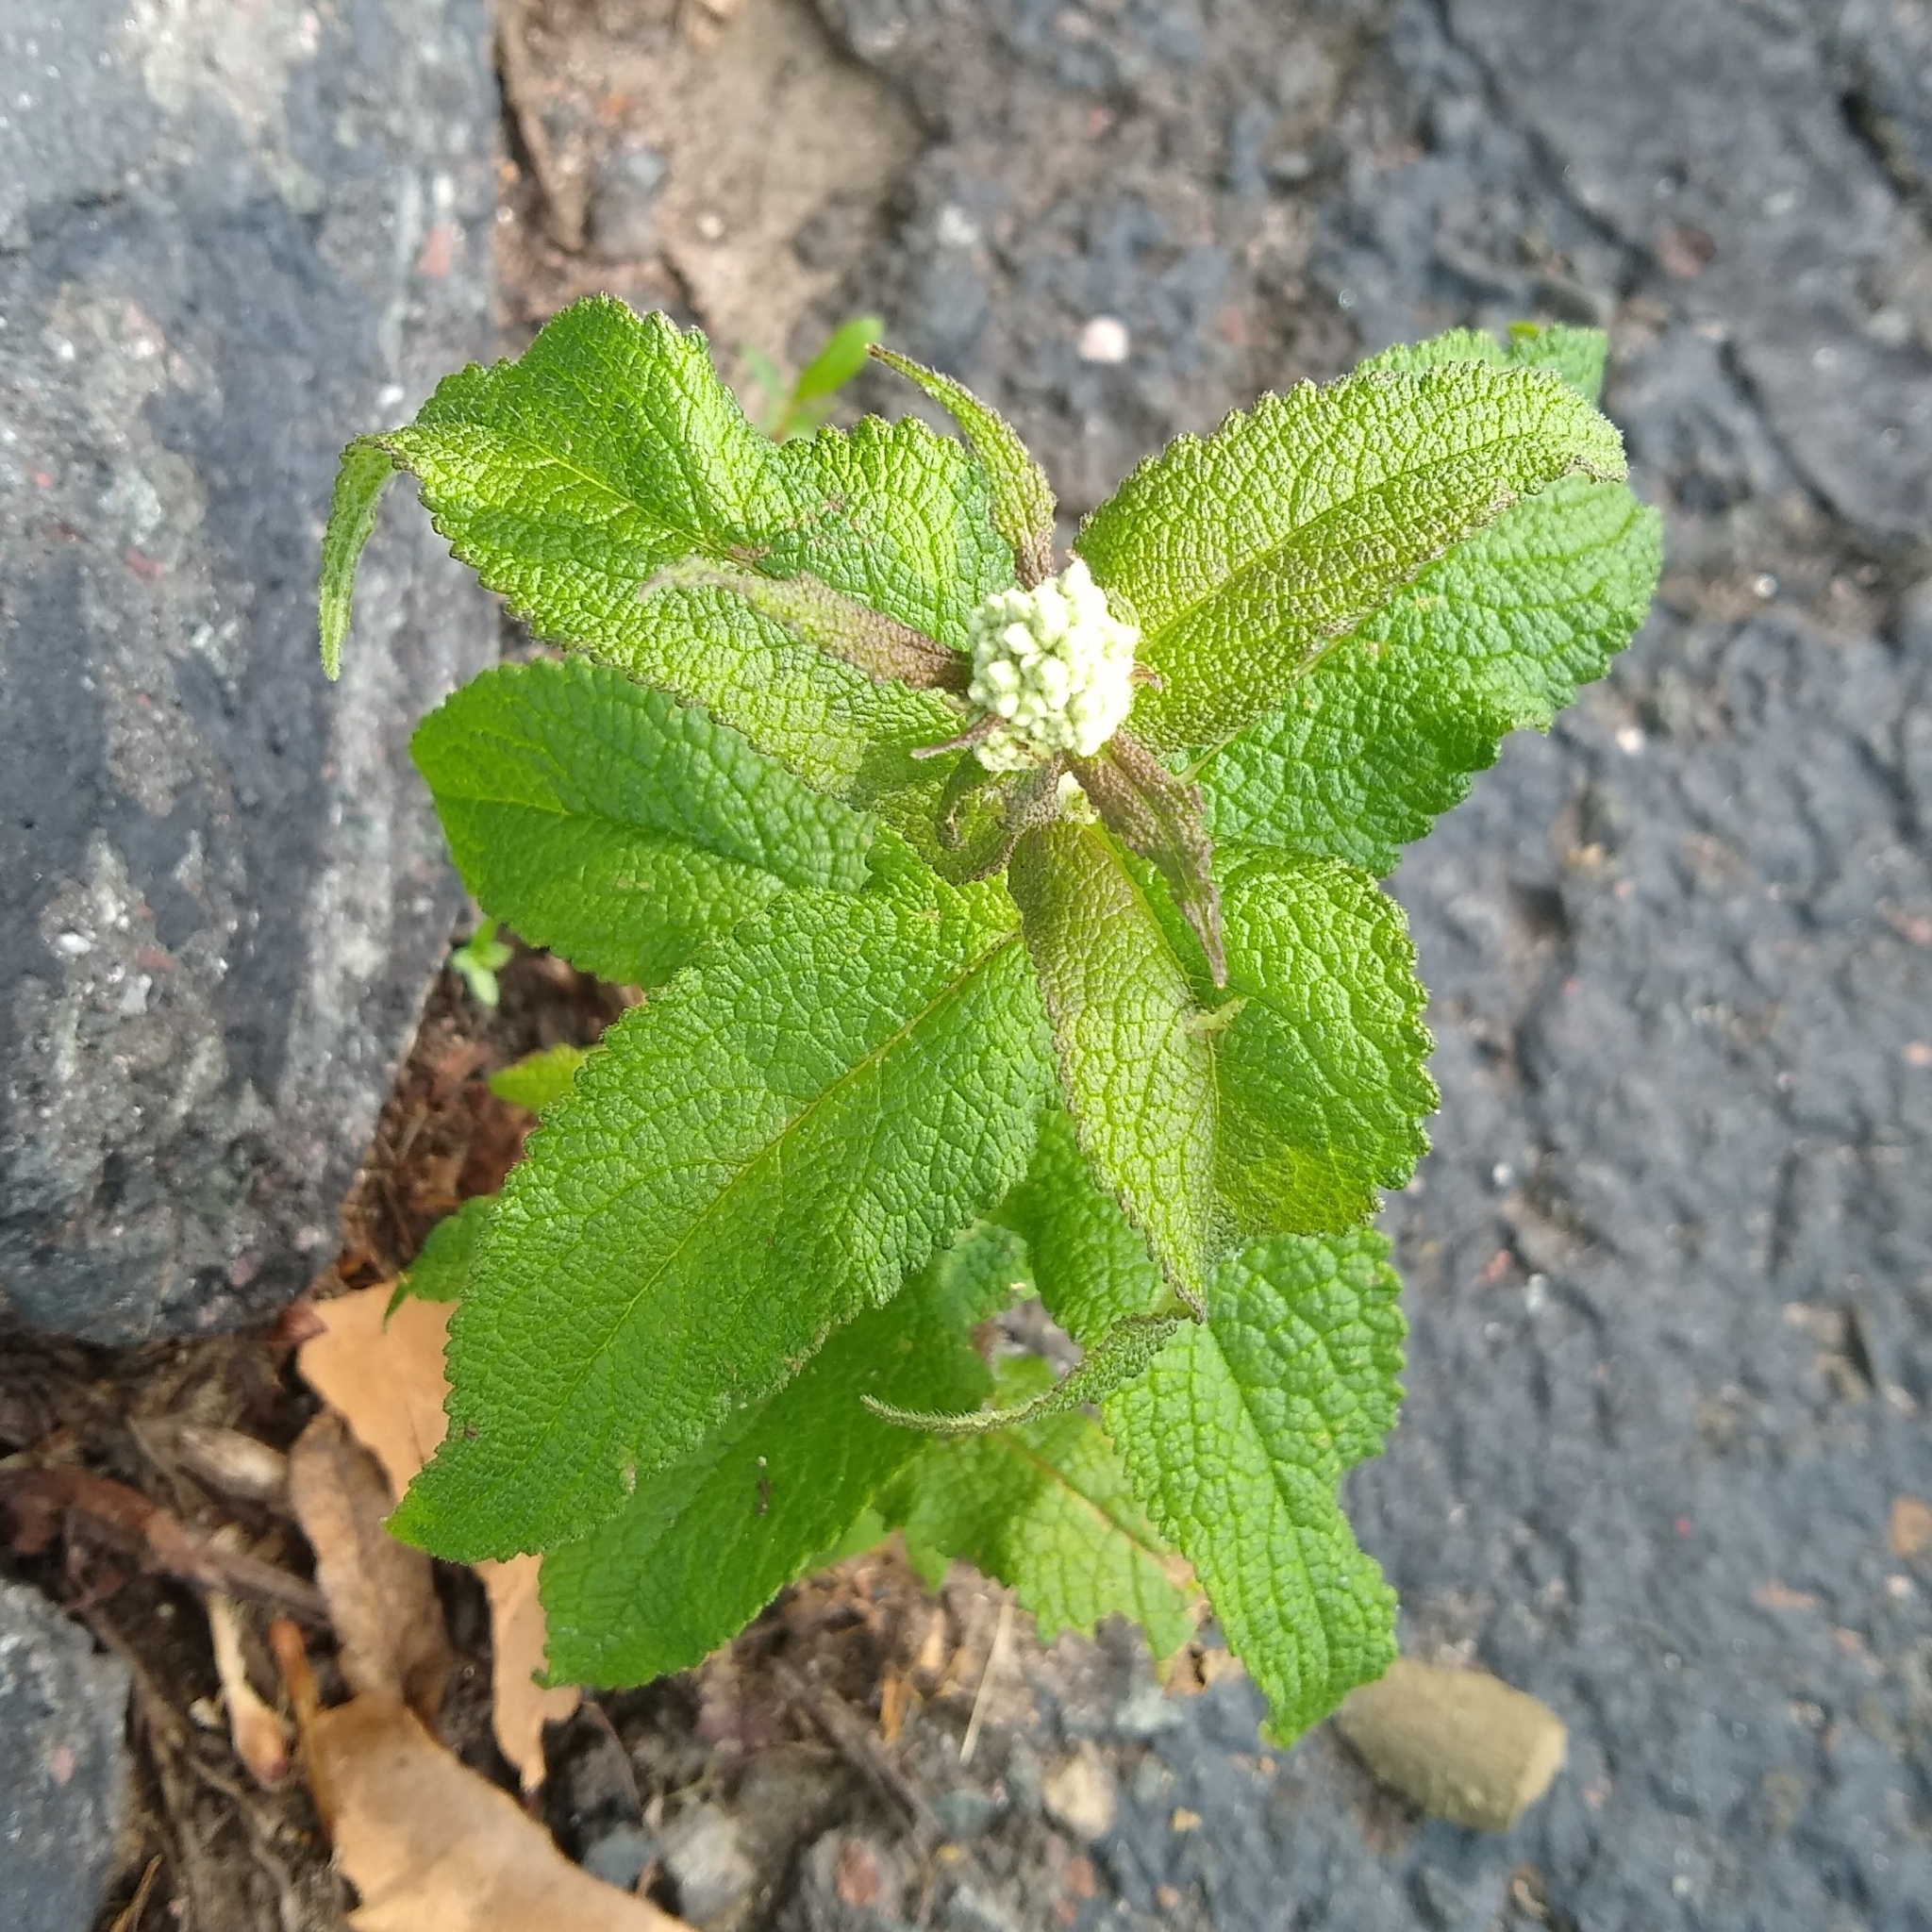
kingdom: Plantae
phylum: Tracheophyta
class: Magnoliopsida
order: Asterales
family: Asteraceae
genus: Eupatorium
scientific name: Eupatorium perfoliatum
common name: Boneset
